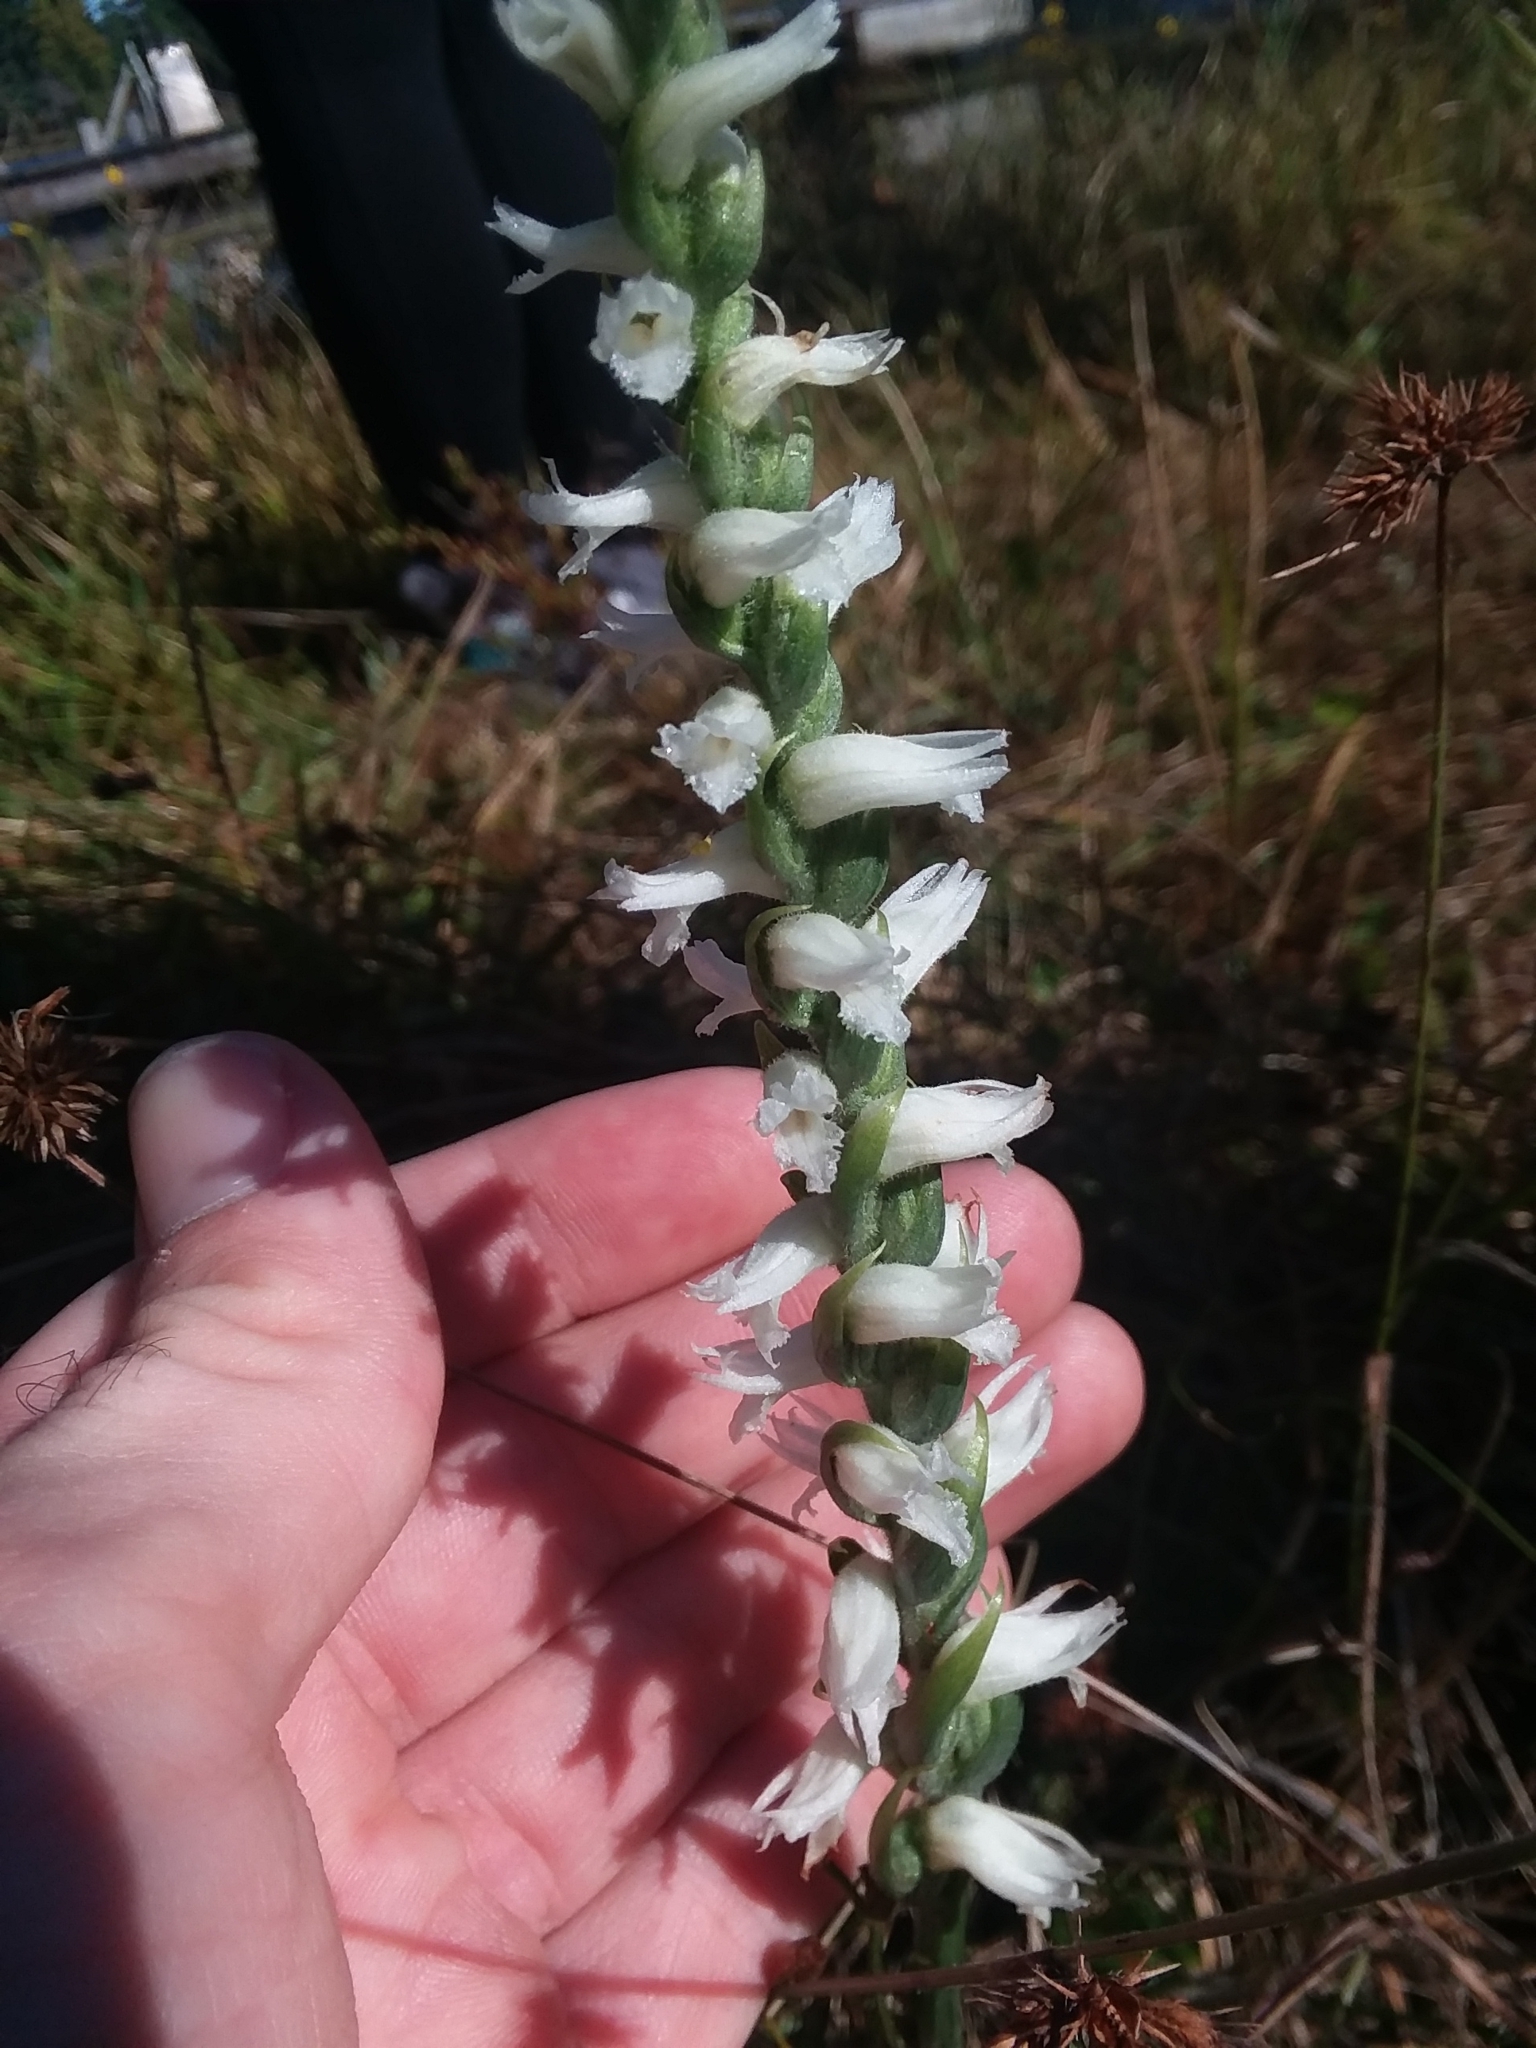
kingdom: Plantae
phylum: Tracheophyta
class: Liliopsida
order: Asparagales
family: Orchidaceae
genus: Spiranthes
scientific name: Spiranthes cernua
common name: Dropping ladies'-tresses
